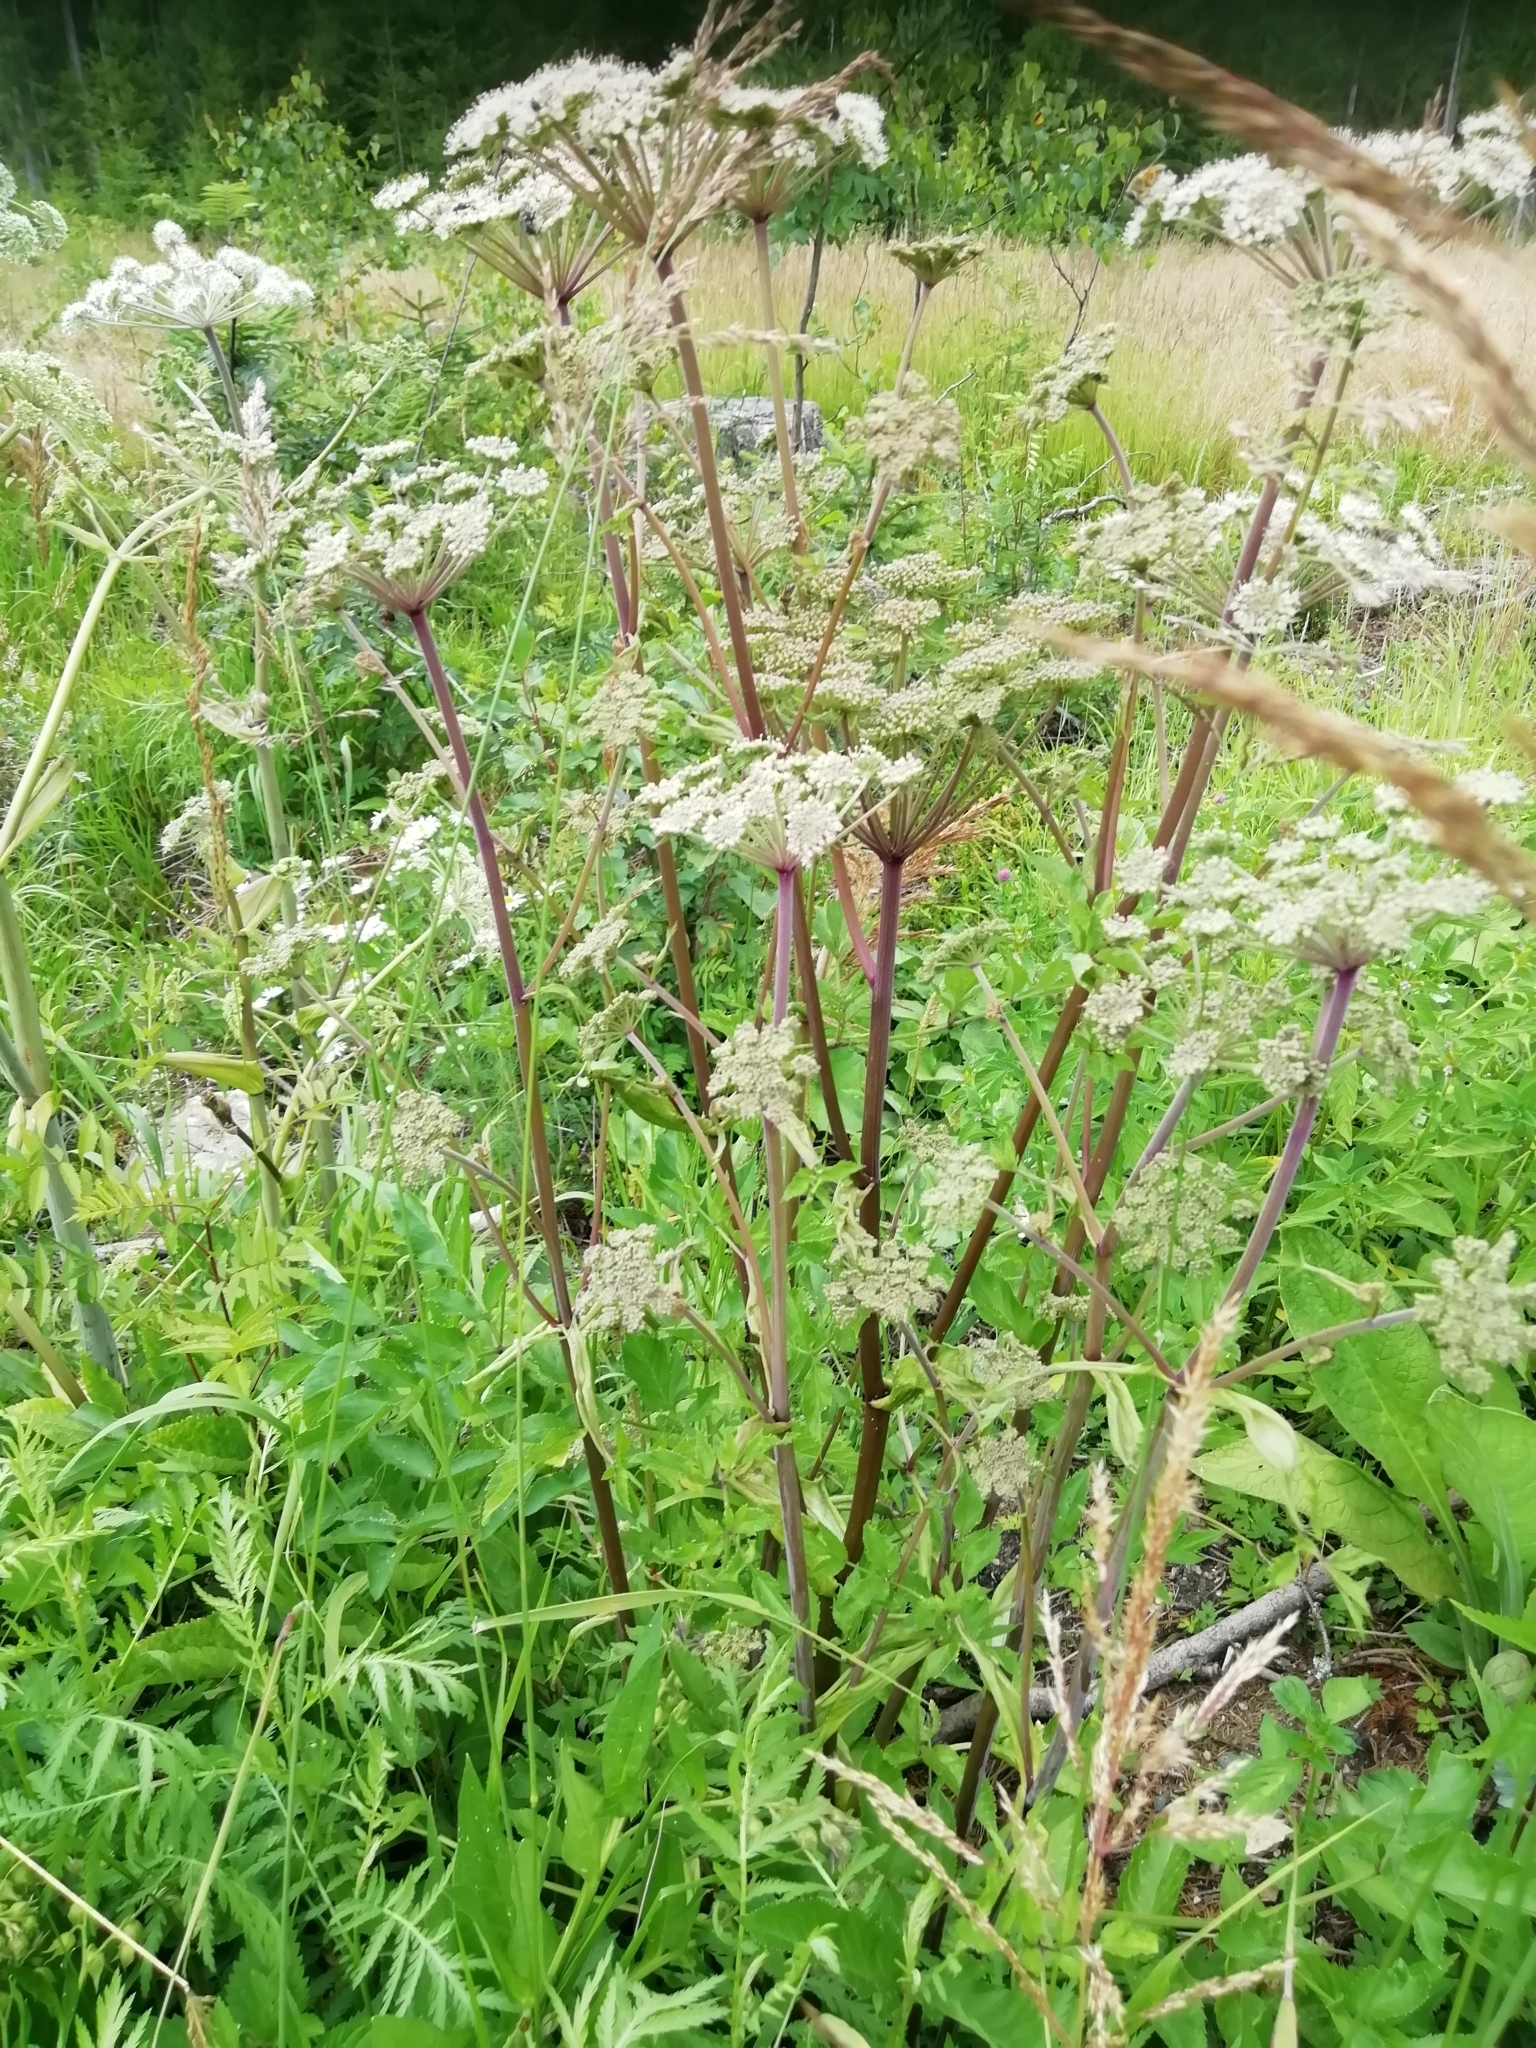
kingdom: Plantae
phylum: Tracheophyta
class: Magnoliopsida
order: Apiales
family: Apiaceae
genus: Angelica
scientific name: Angelica sylvestris
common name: Wild angelica
